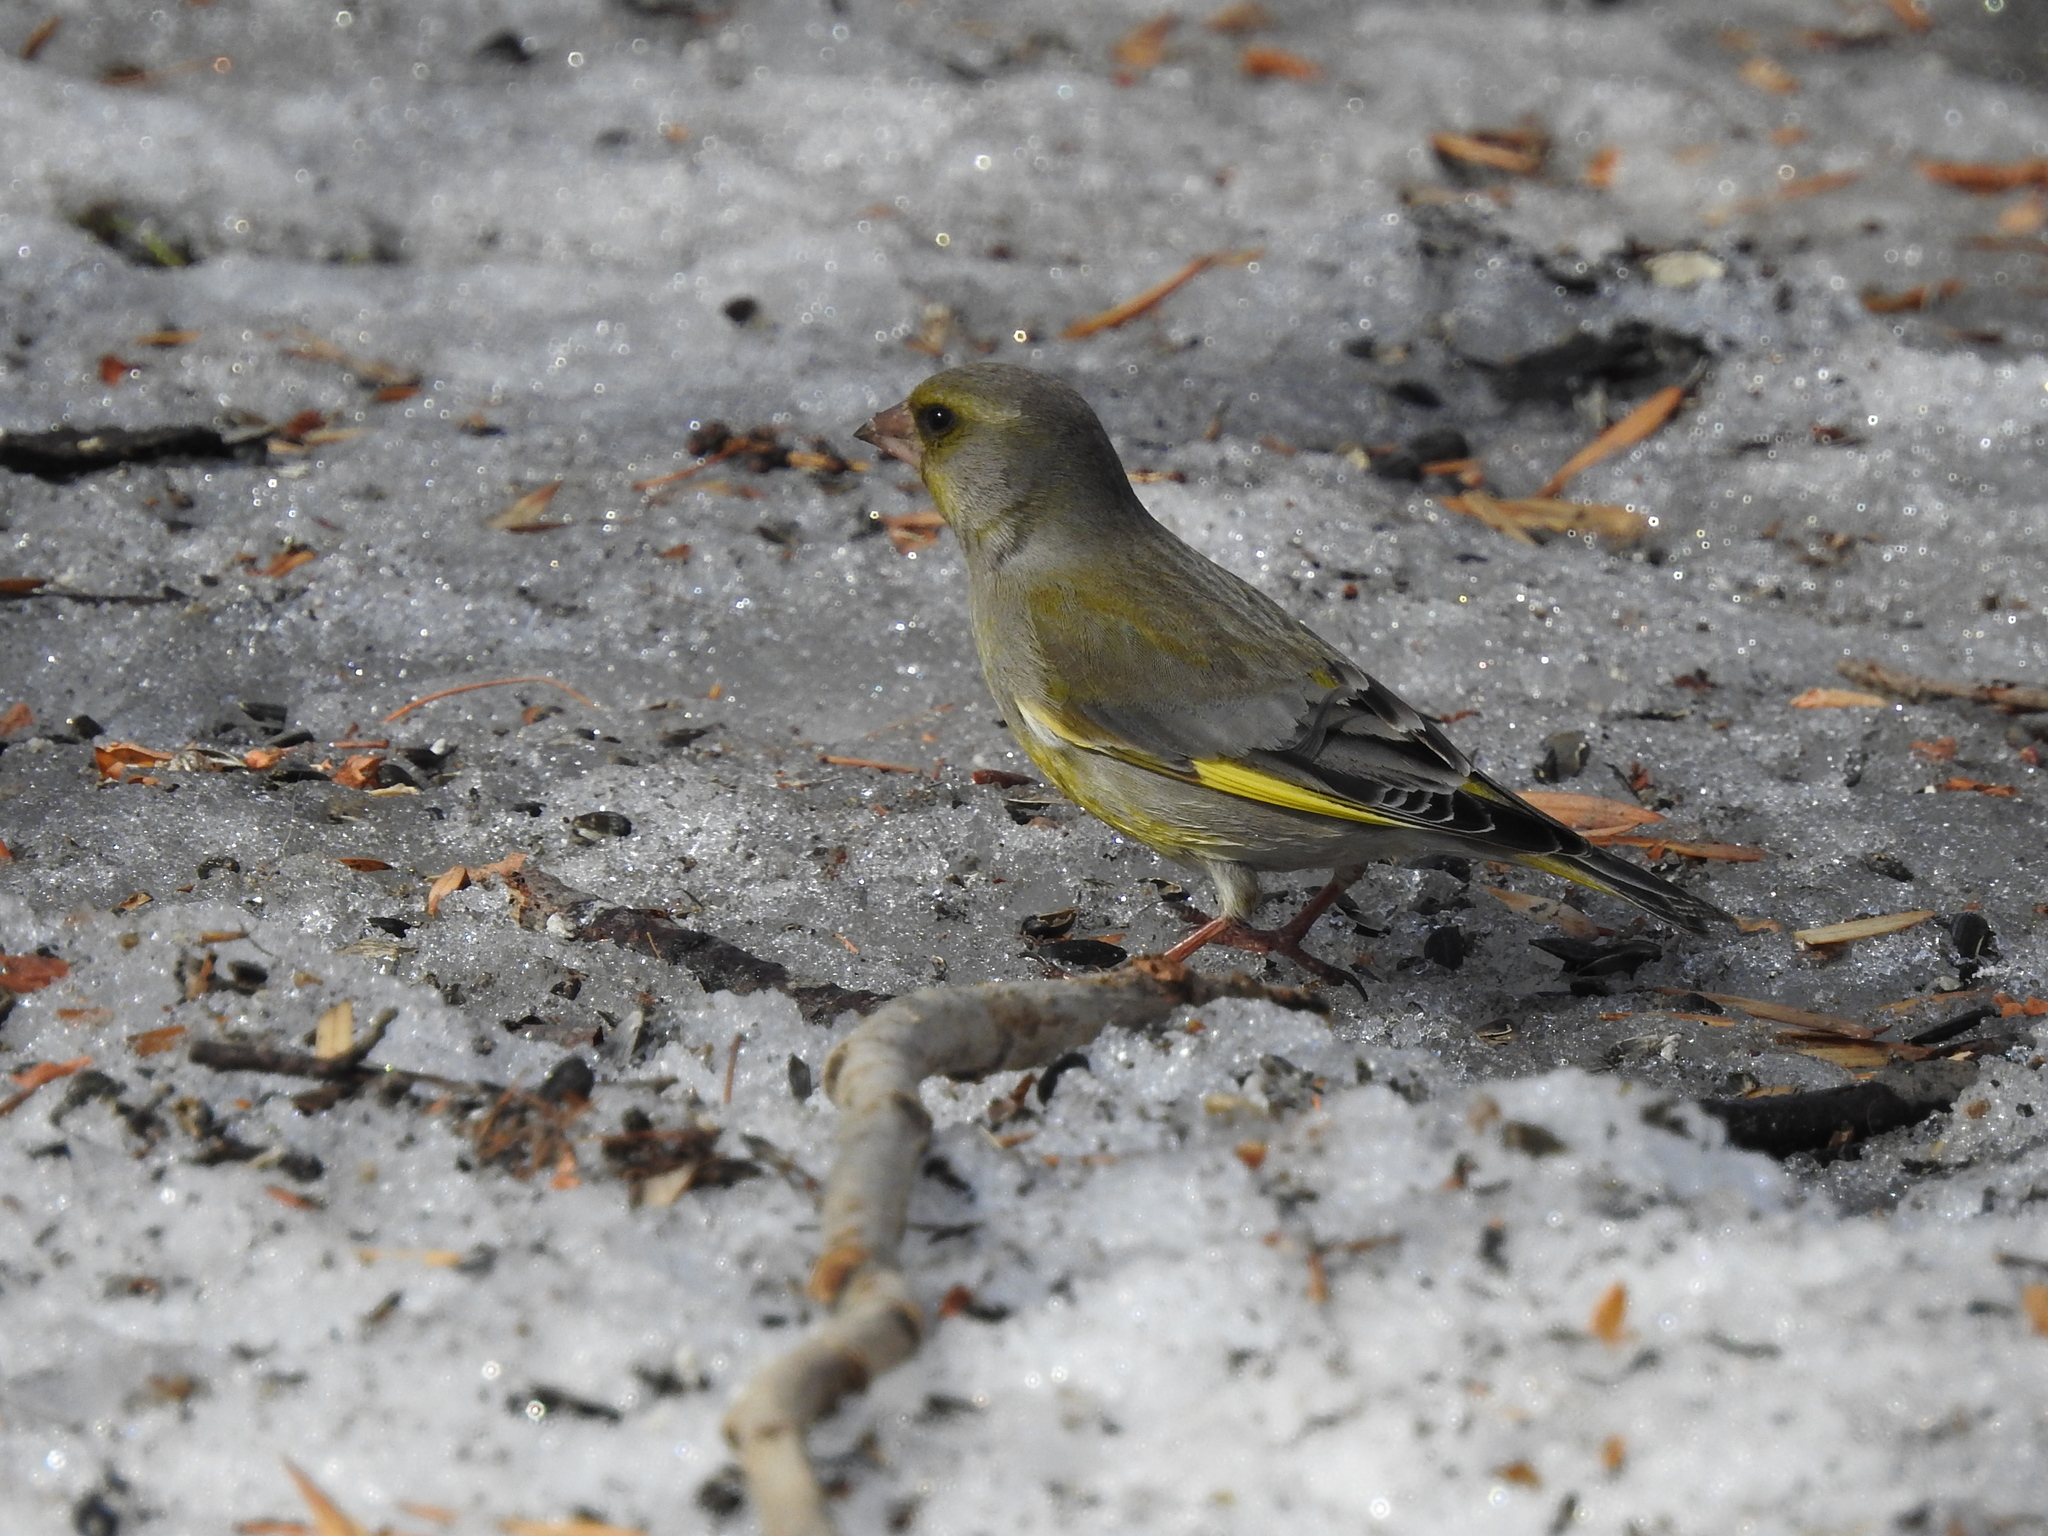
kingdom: Plantae
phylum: Tracheophyta
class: Liliopsida
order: Poales
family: Poaceae
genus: Chloris
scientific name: Chloris chloris
